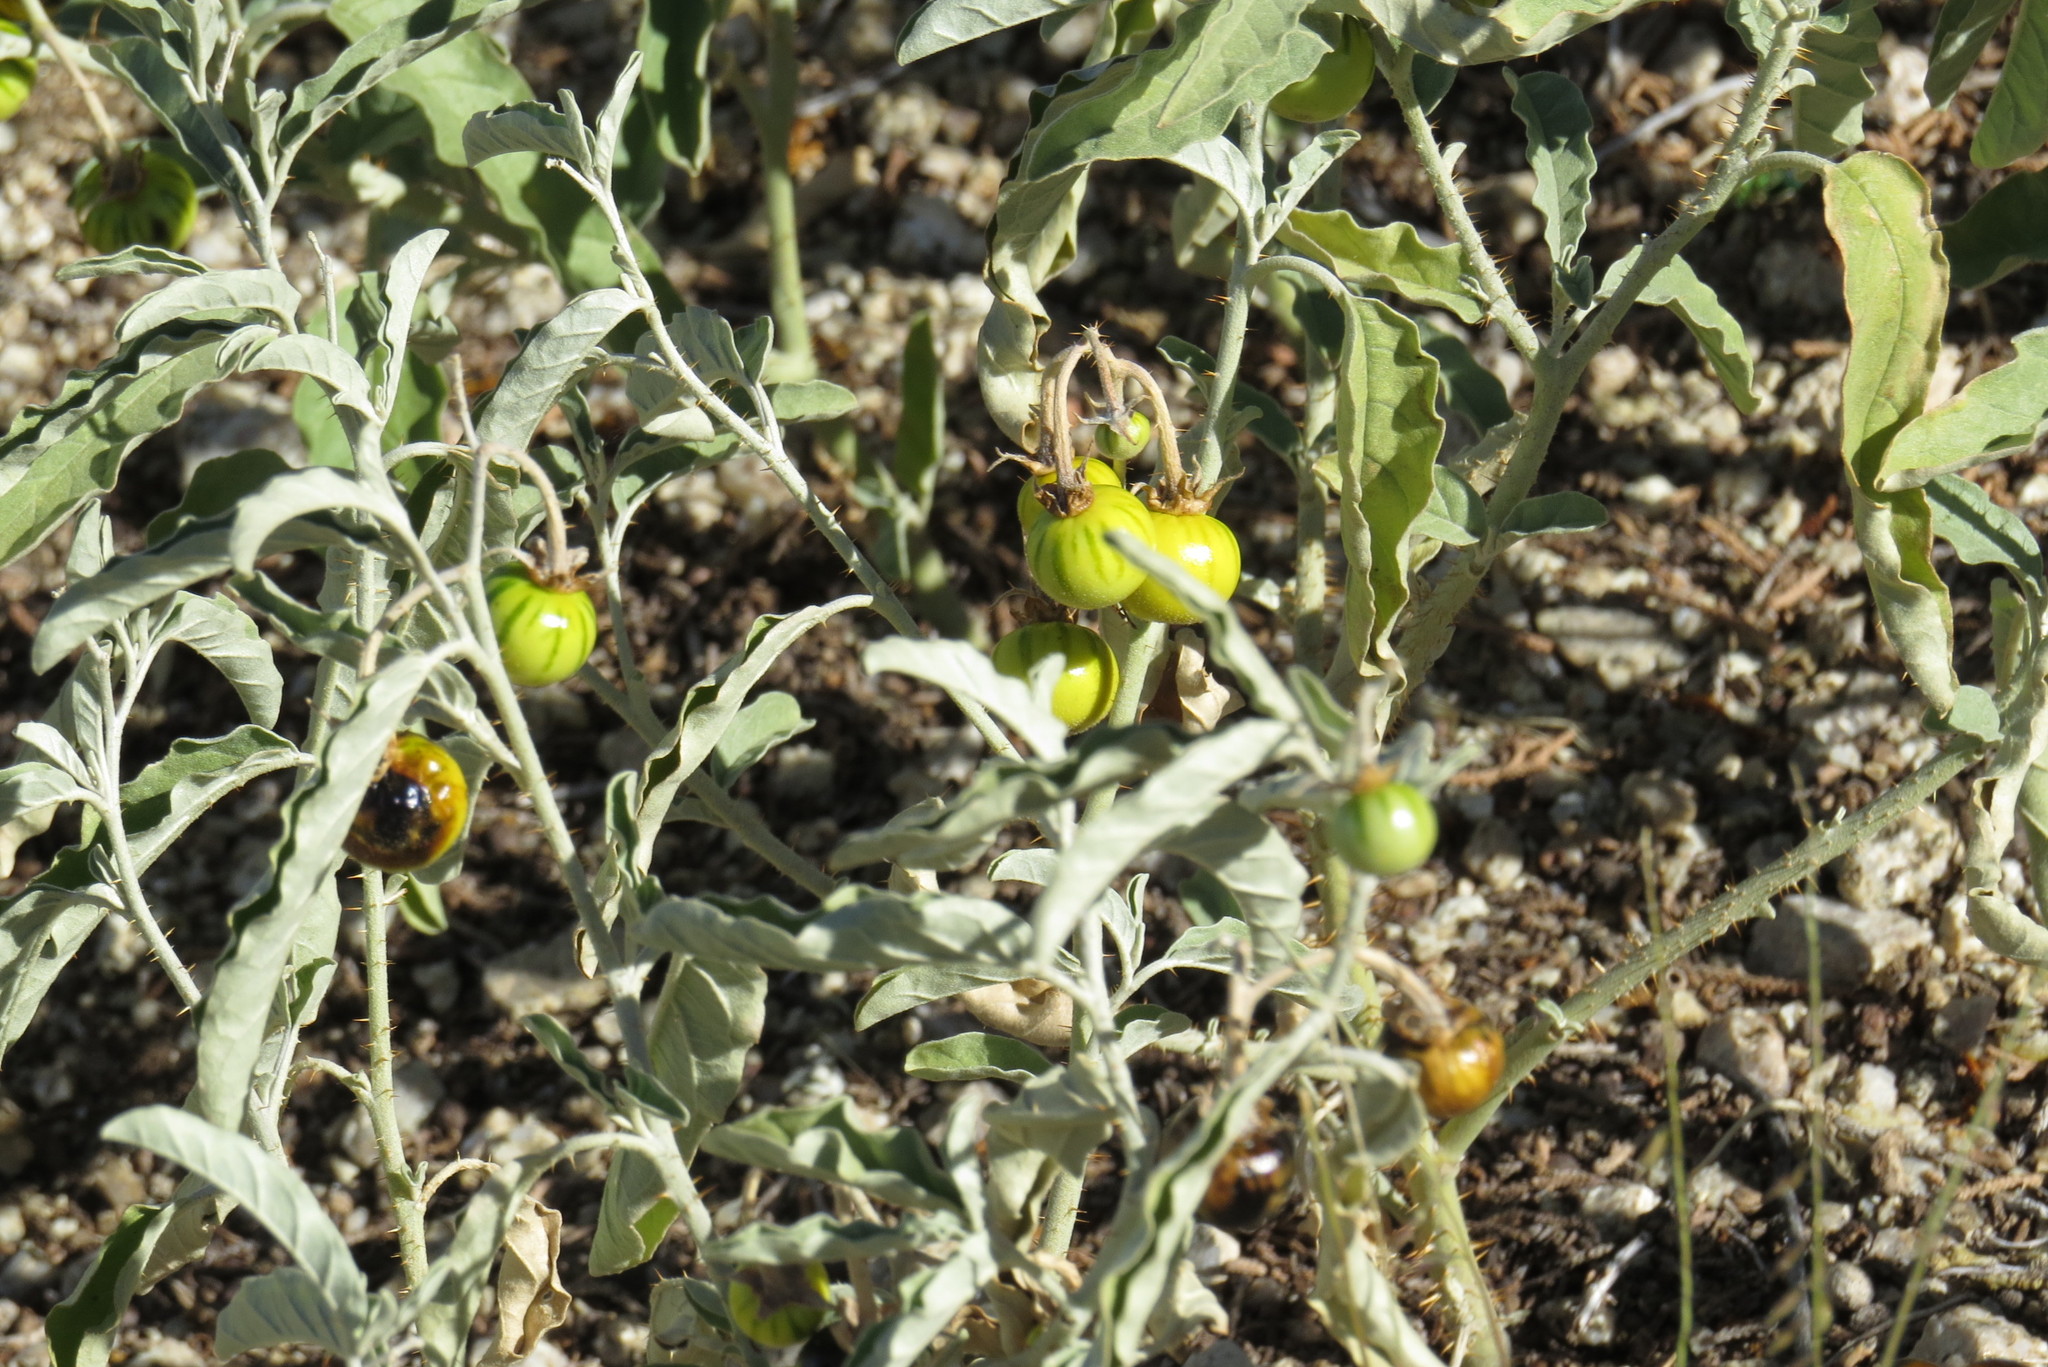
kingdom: Plantae
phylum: Tracheophyta
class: Magnoliopsida
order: Solanales
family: Solanaceae
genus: Solanum
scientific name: Solanum elaeagnifolium
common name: Silverleaf nightshade
